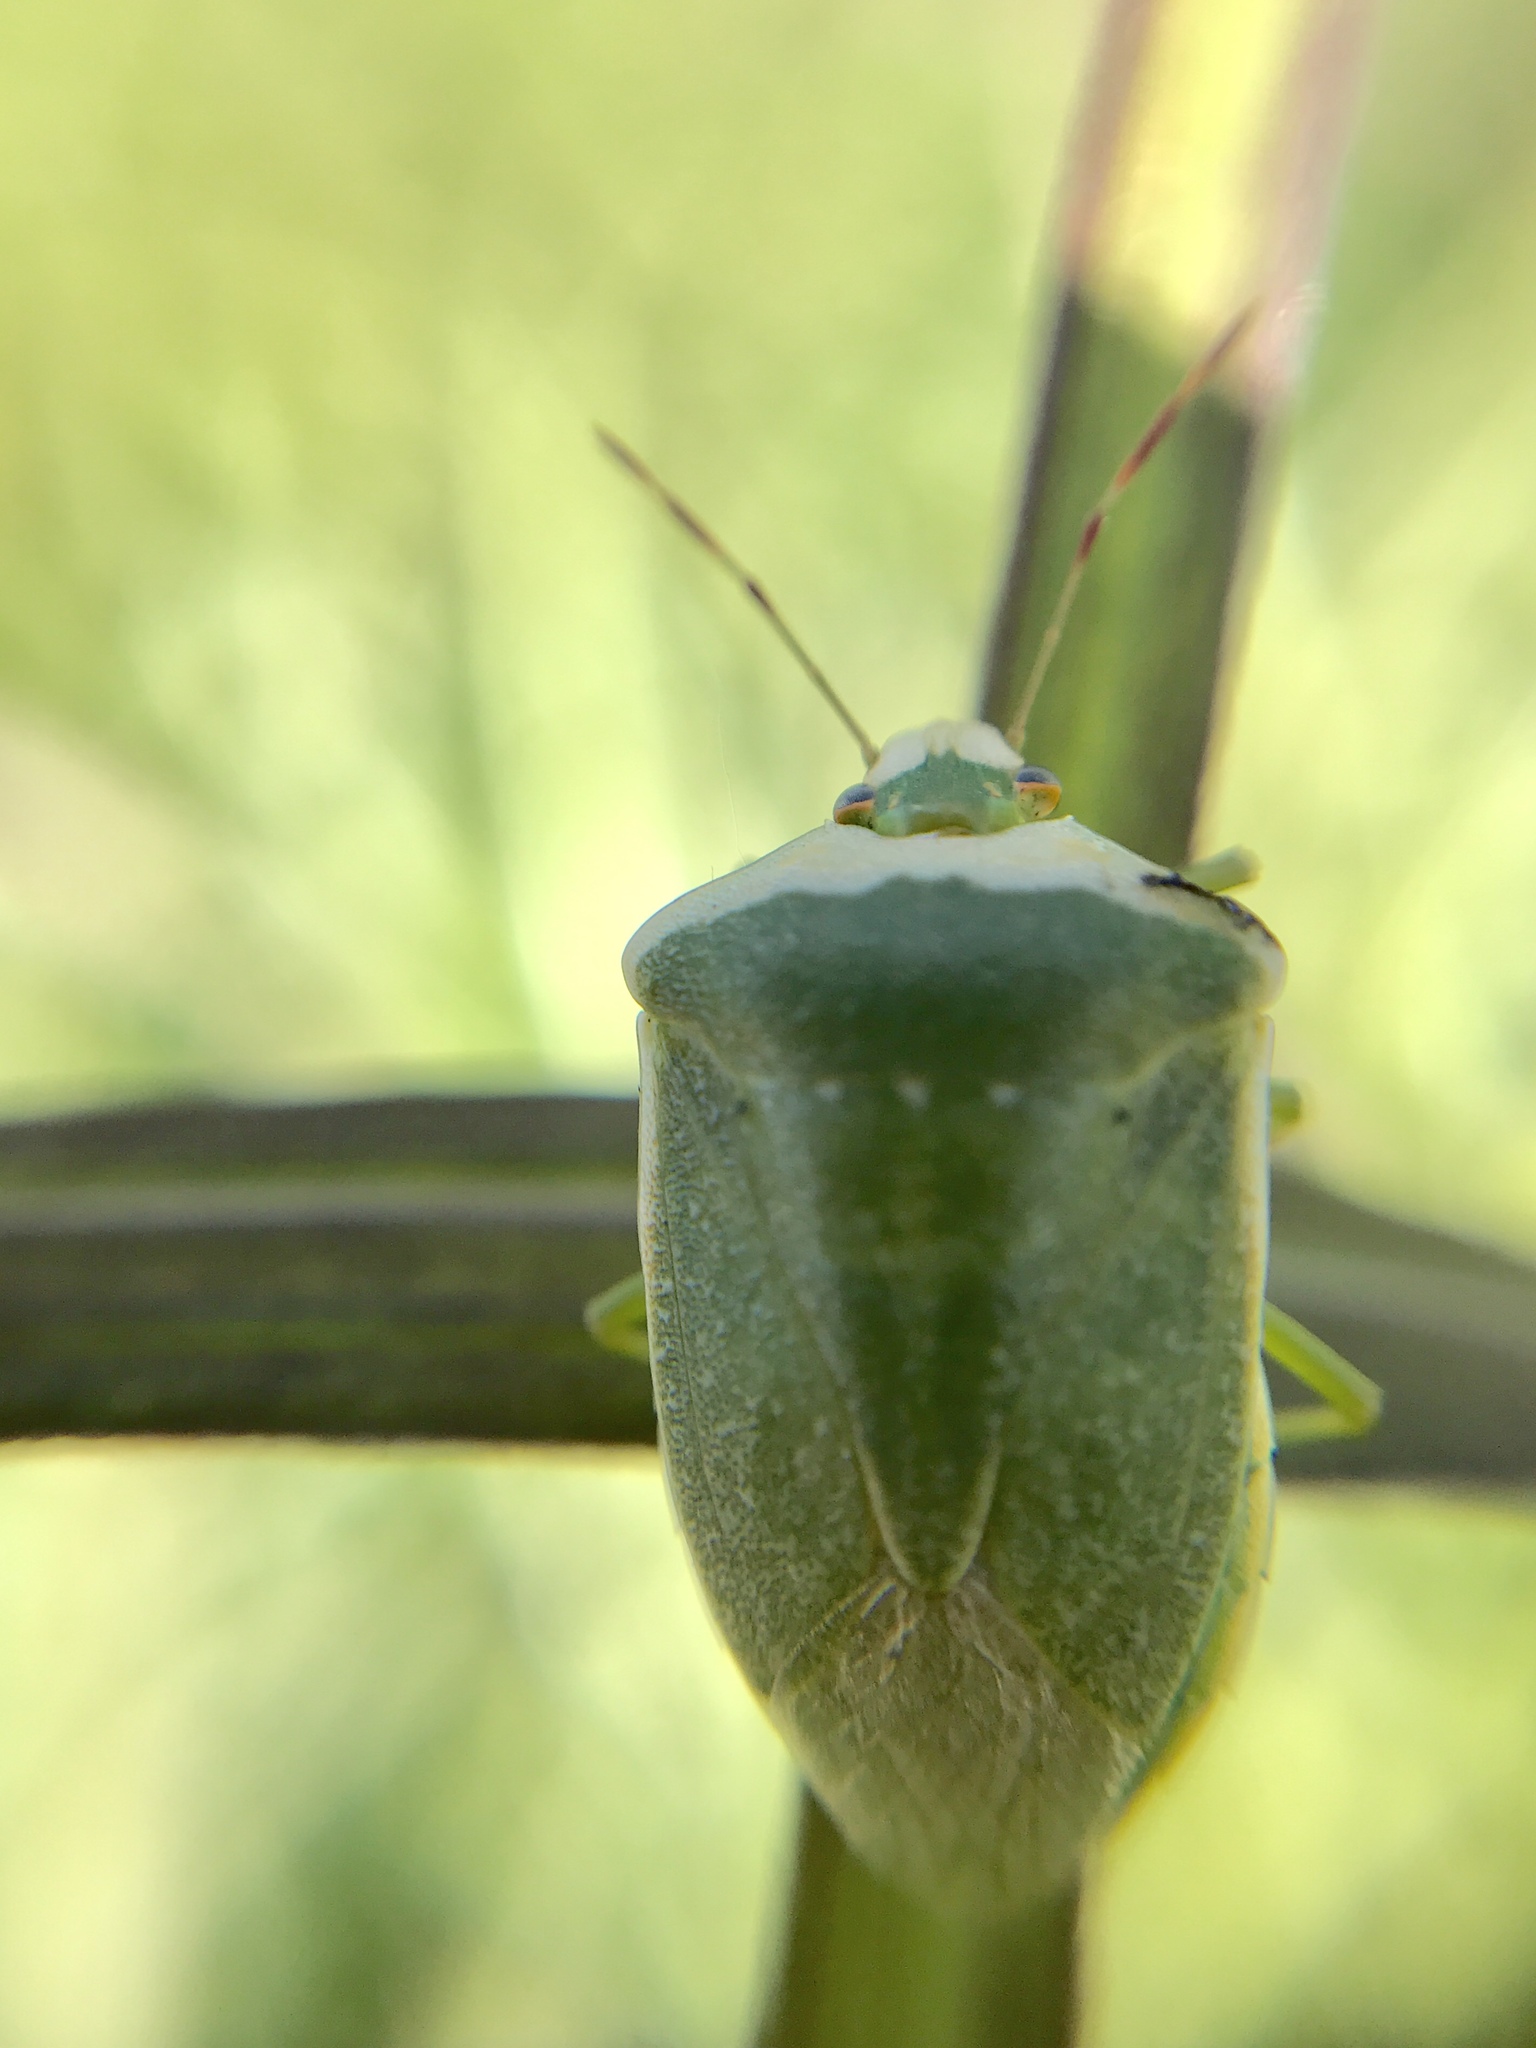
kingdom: Animalia
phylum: Arthropoda
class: Insecta
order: Hemiptera
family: Pentatomidae
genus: Nezara
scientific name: Nezara viridula
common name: Southern green stink bug
